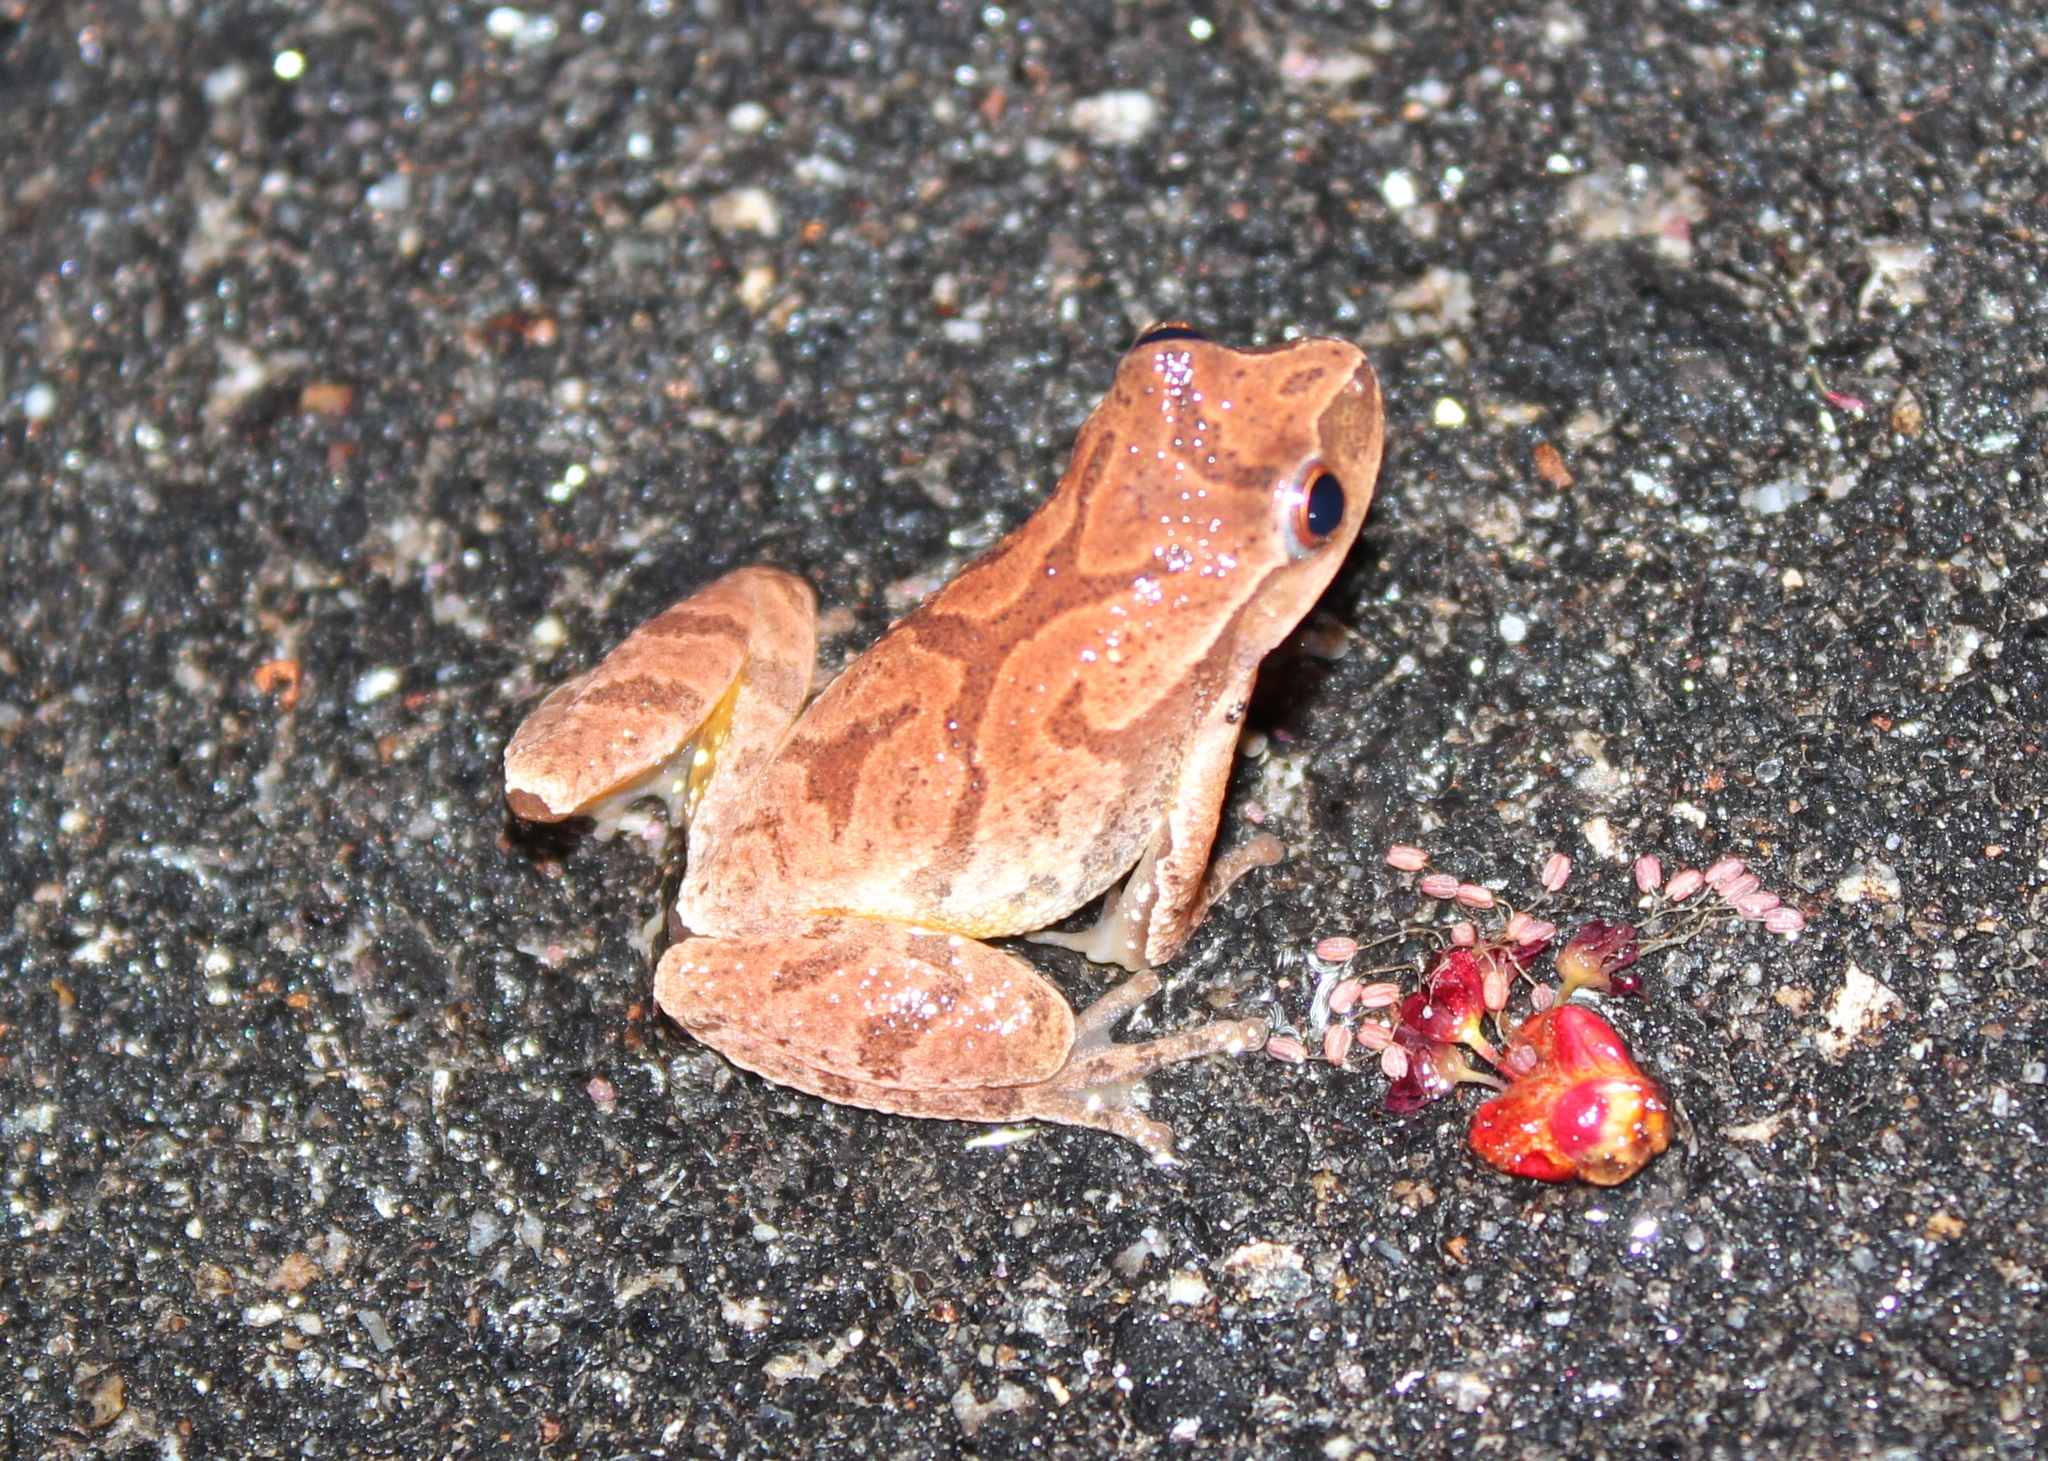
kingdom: Animalia
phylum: Chordata
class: Amphibia
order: Anura
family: Hylidae
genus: Pseudacris
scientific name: Pseudacris crucifer
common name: Spring peeper
